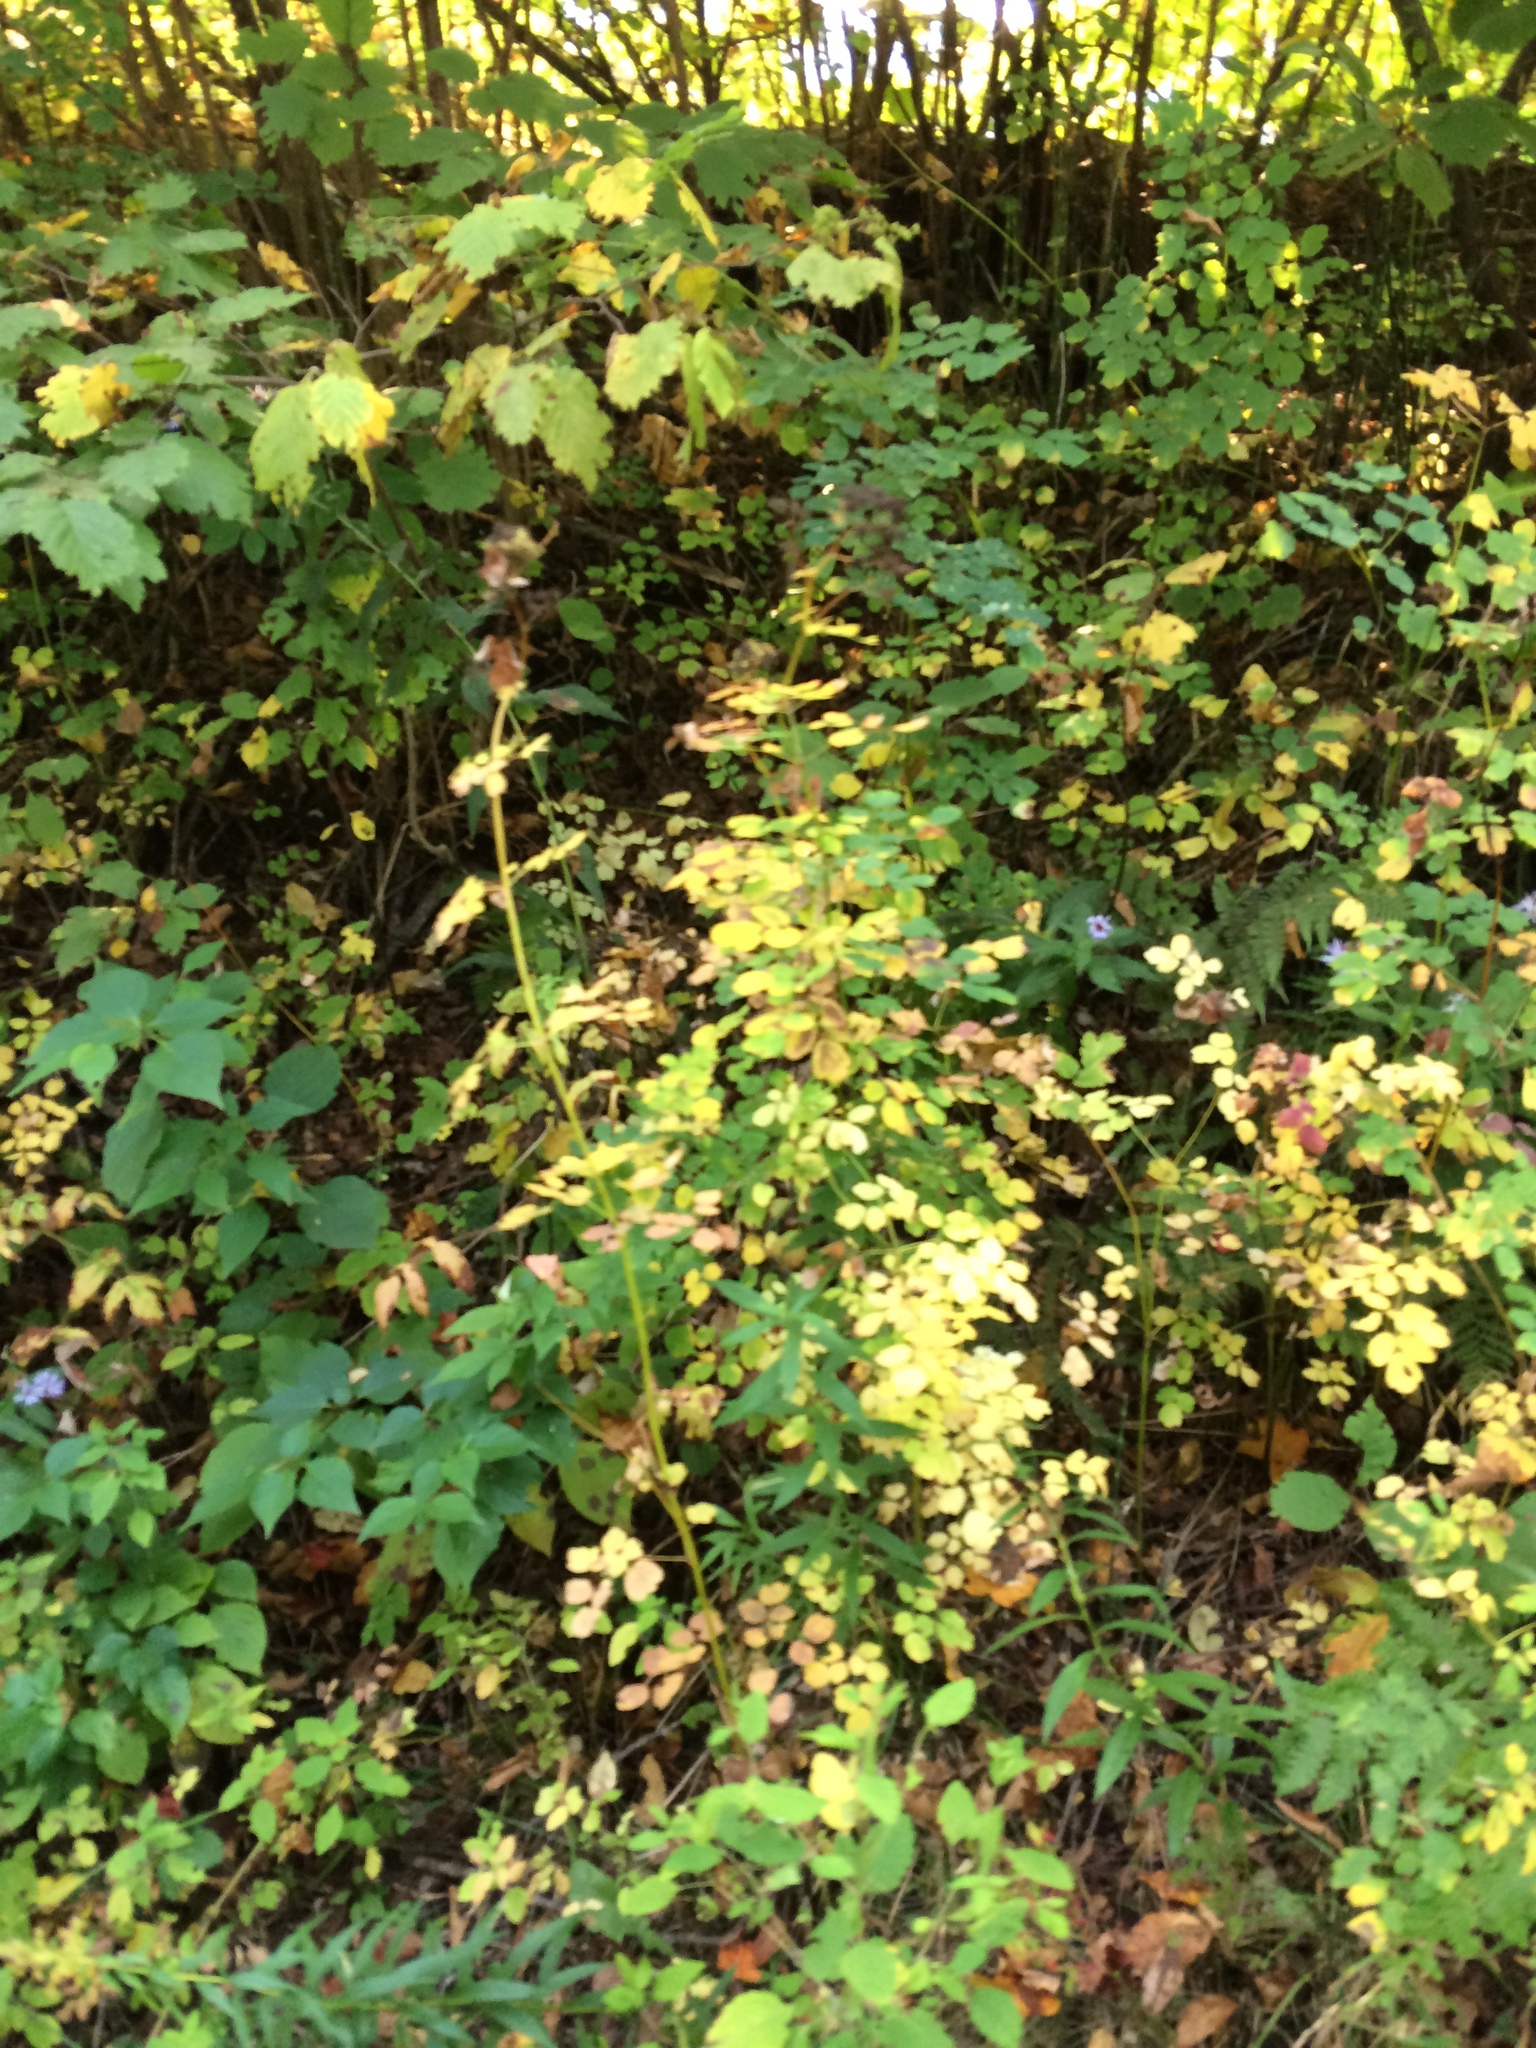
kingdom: Plantae
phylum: Tracheophyta
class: Magnoliopsida
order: Ranunculales
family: Ranunculaceae
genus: Thalictrum
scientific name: Thalictrum pubescens
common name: King-of-the-meadow
